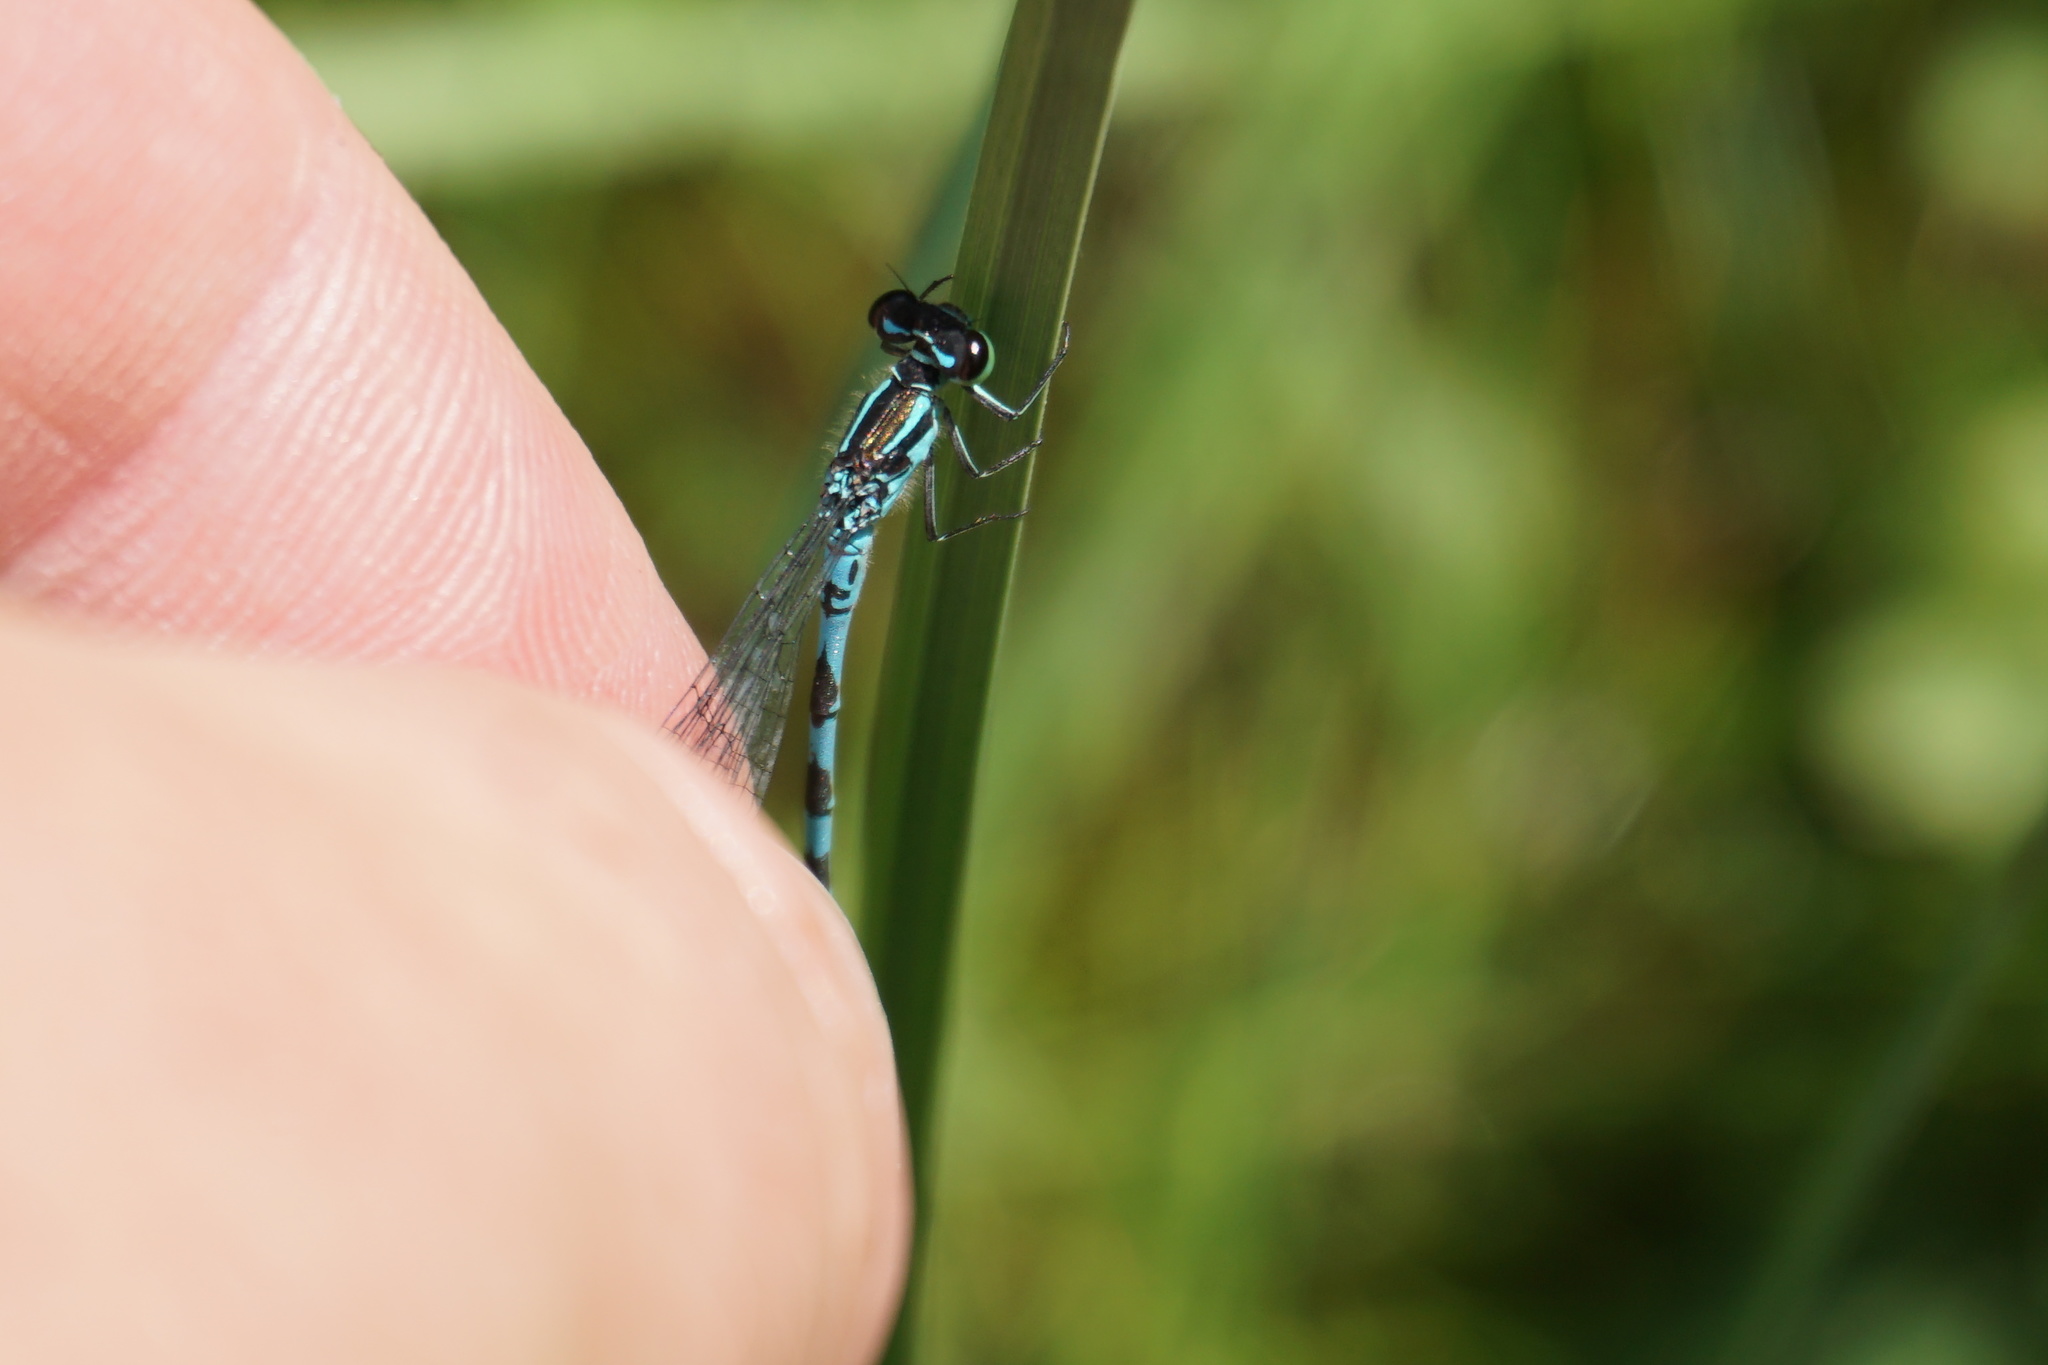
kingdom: Animalia
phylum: Arthropoda
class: Insecta
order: Odonata
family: Coenagrionidae
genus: Coenagrion
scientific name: Coenagrion hastulatum
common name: Spearhead bluet
